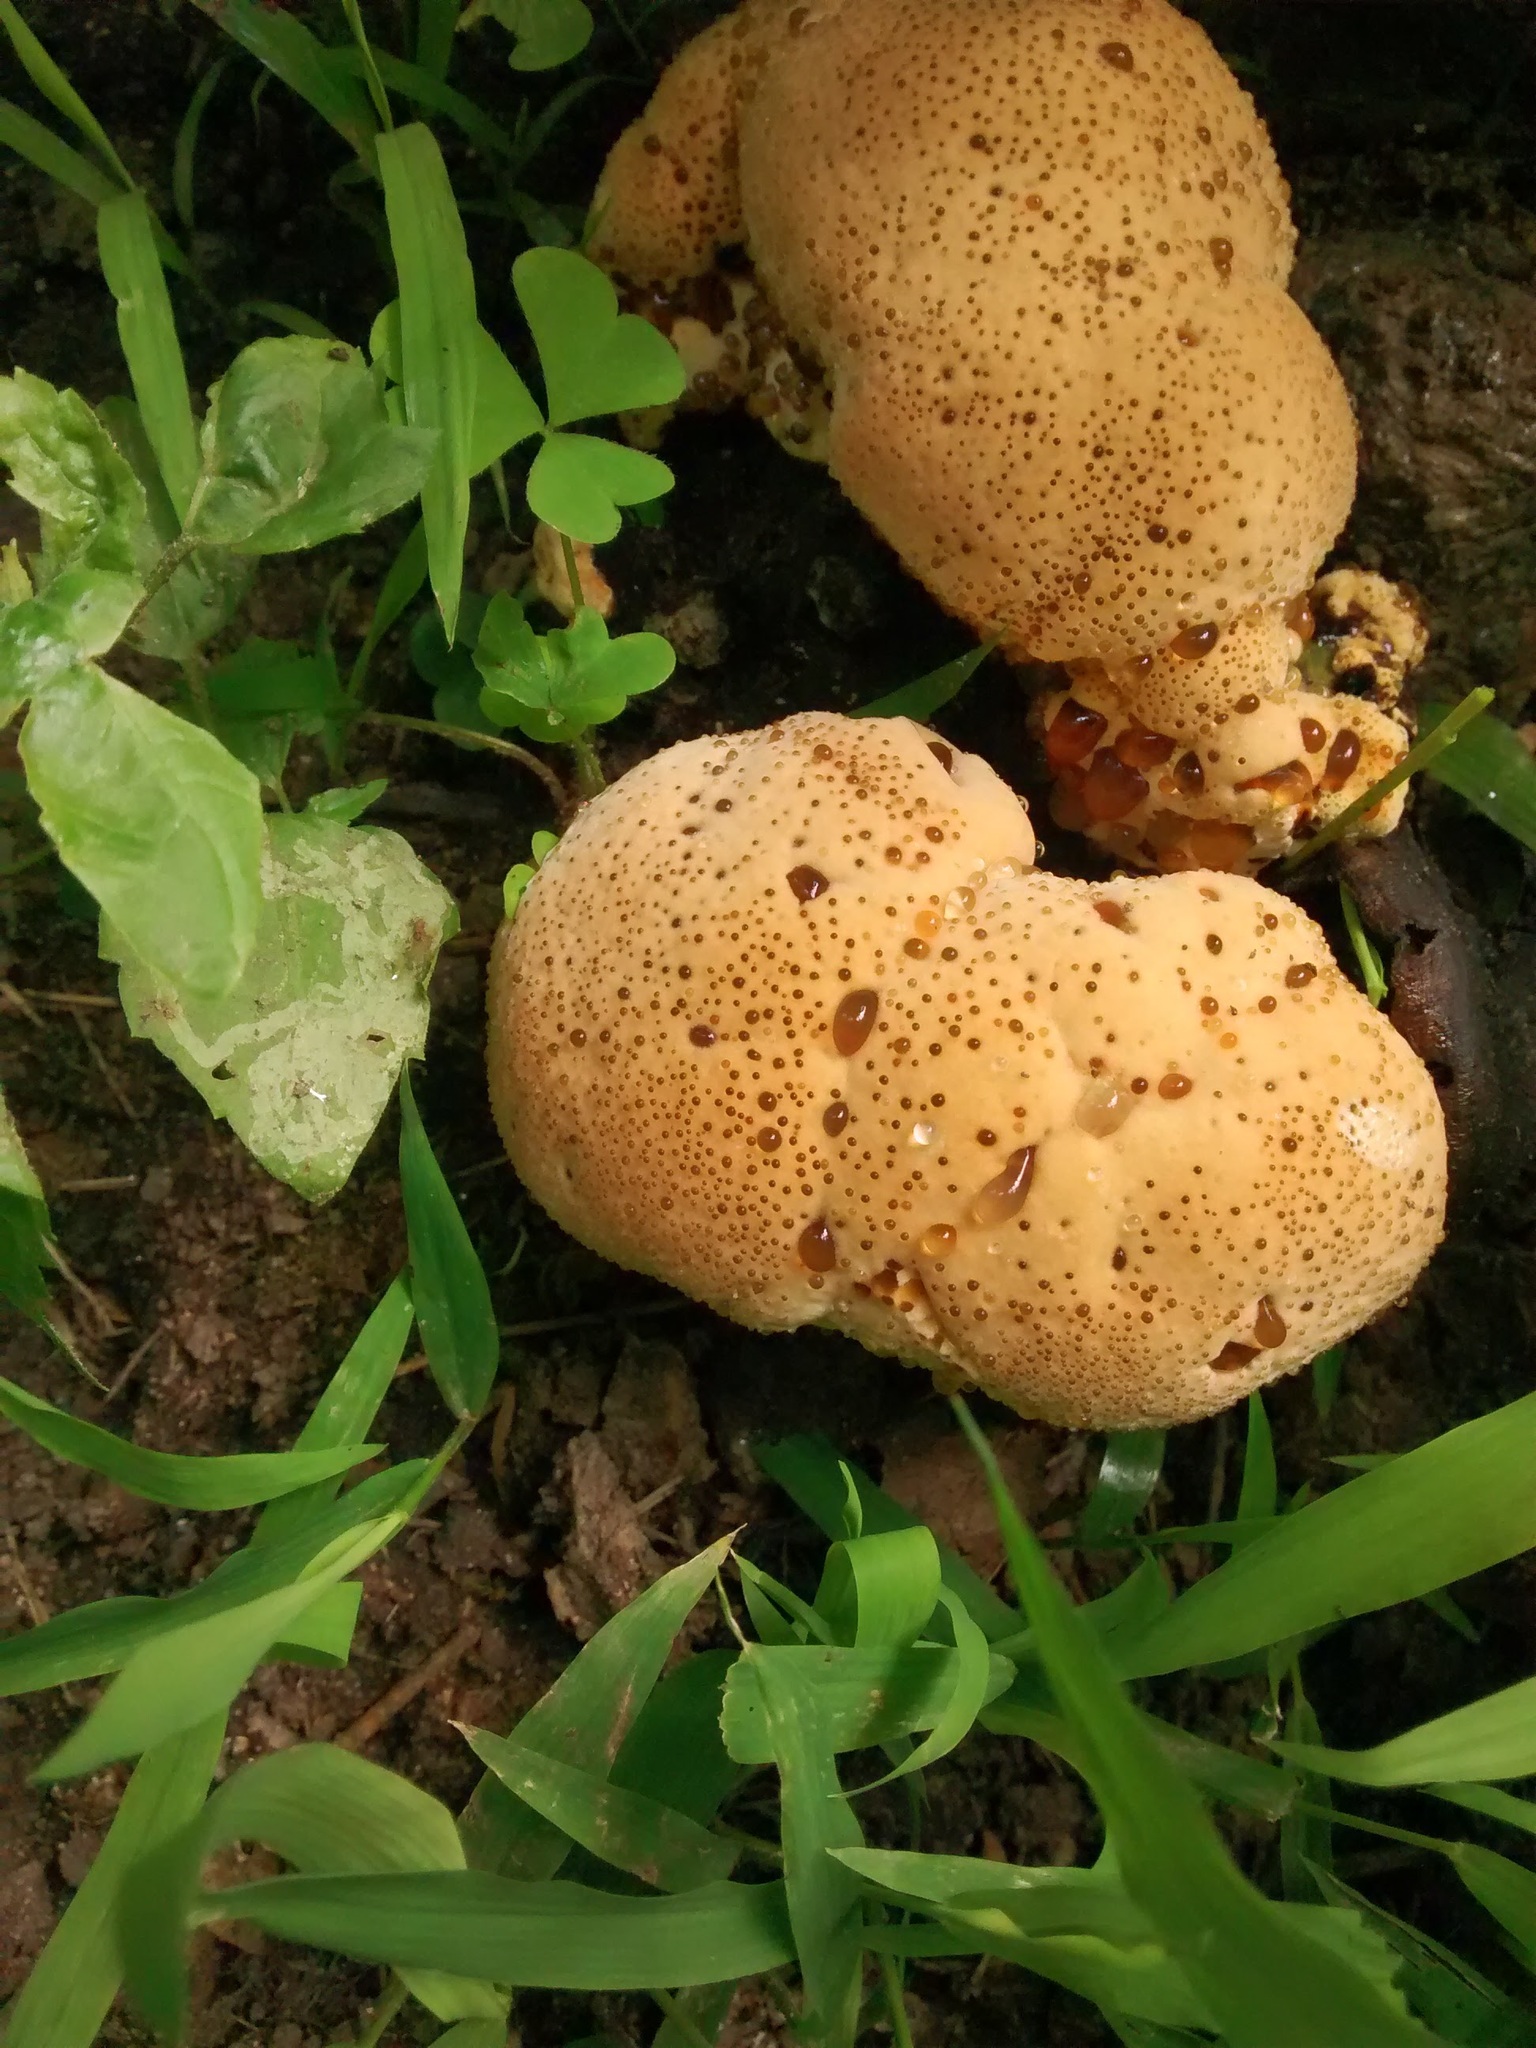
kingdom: Fungi
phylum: Basidiomycota
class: Agaricomycetes
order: Hymenochaetales
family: Hymenochaetaceae
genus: Pseudoinonotus
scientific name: Pseudoinonotus dryadeus
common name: Oak bracket
